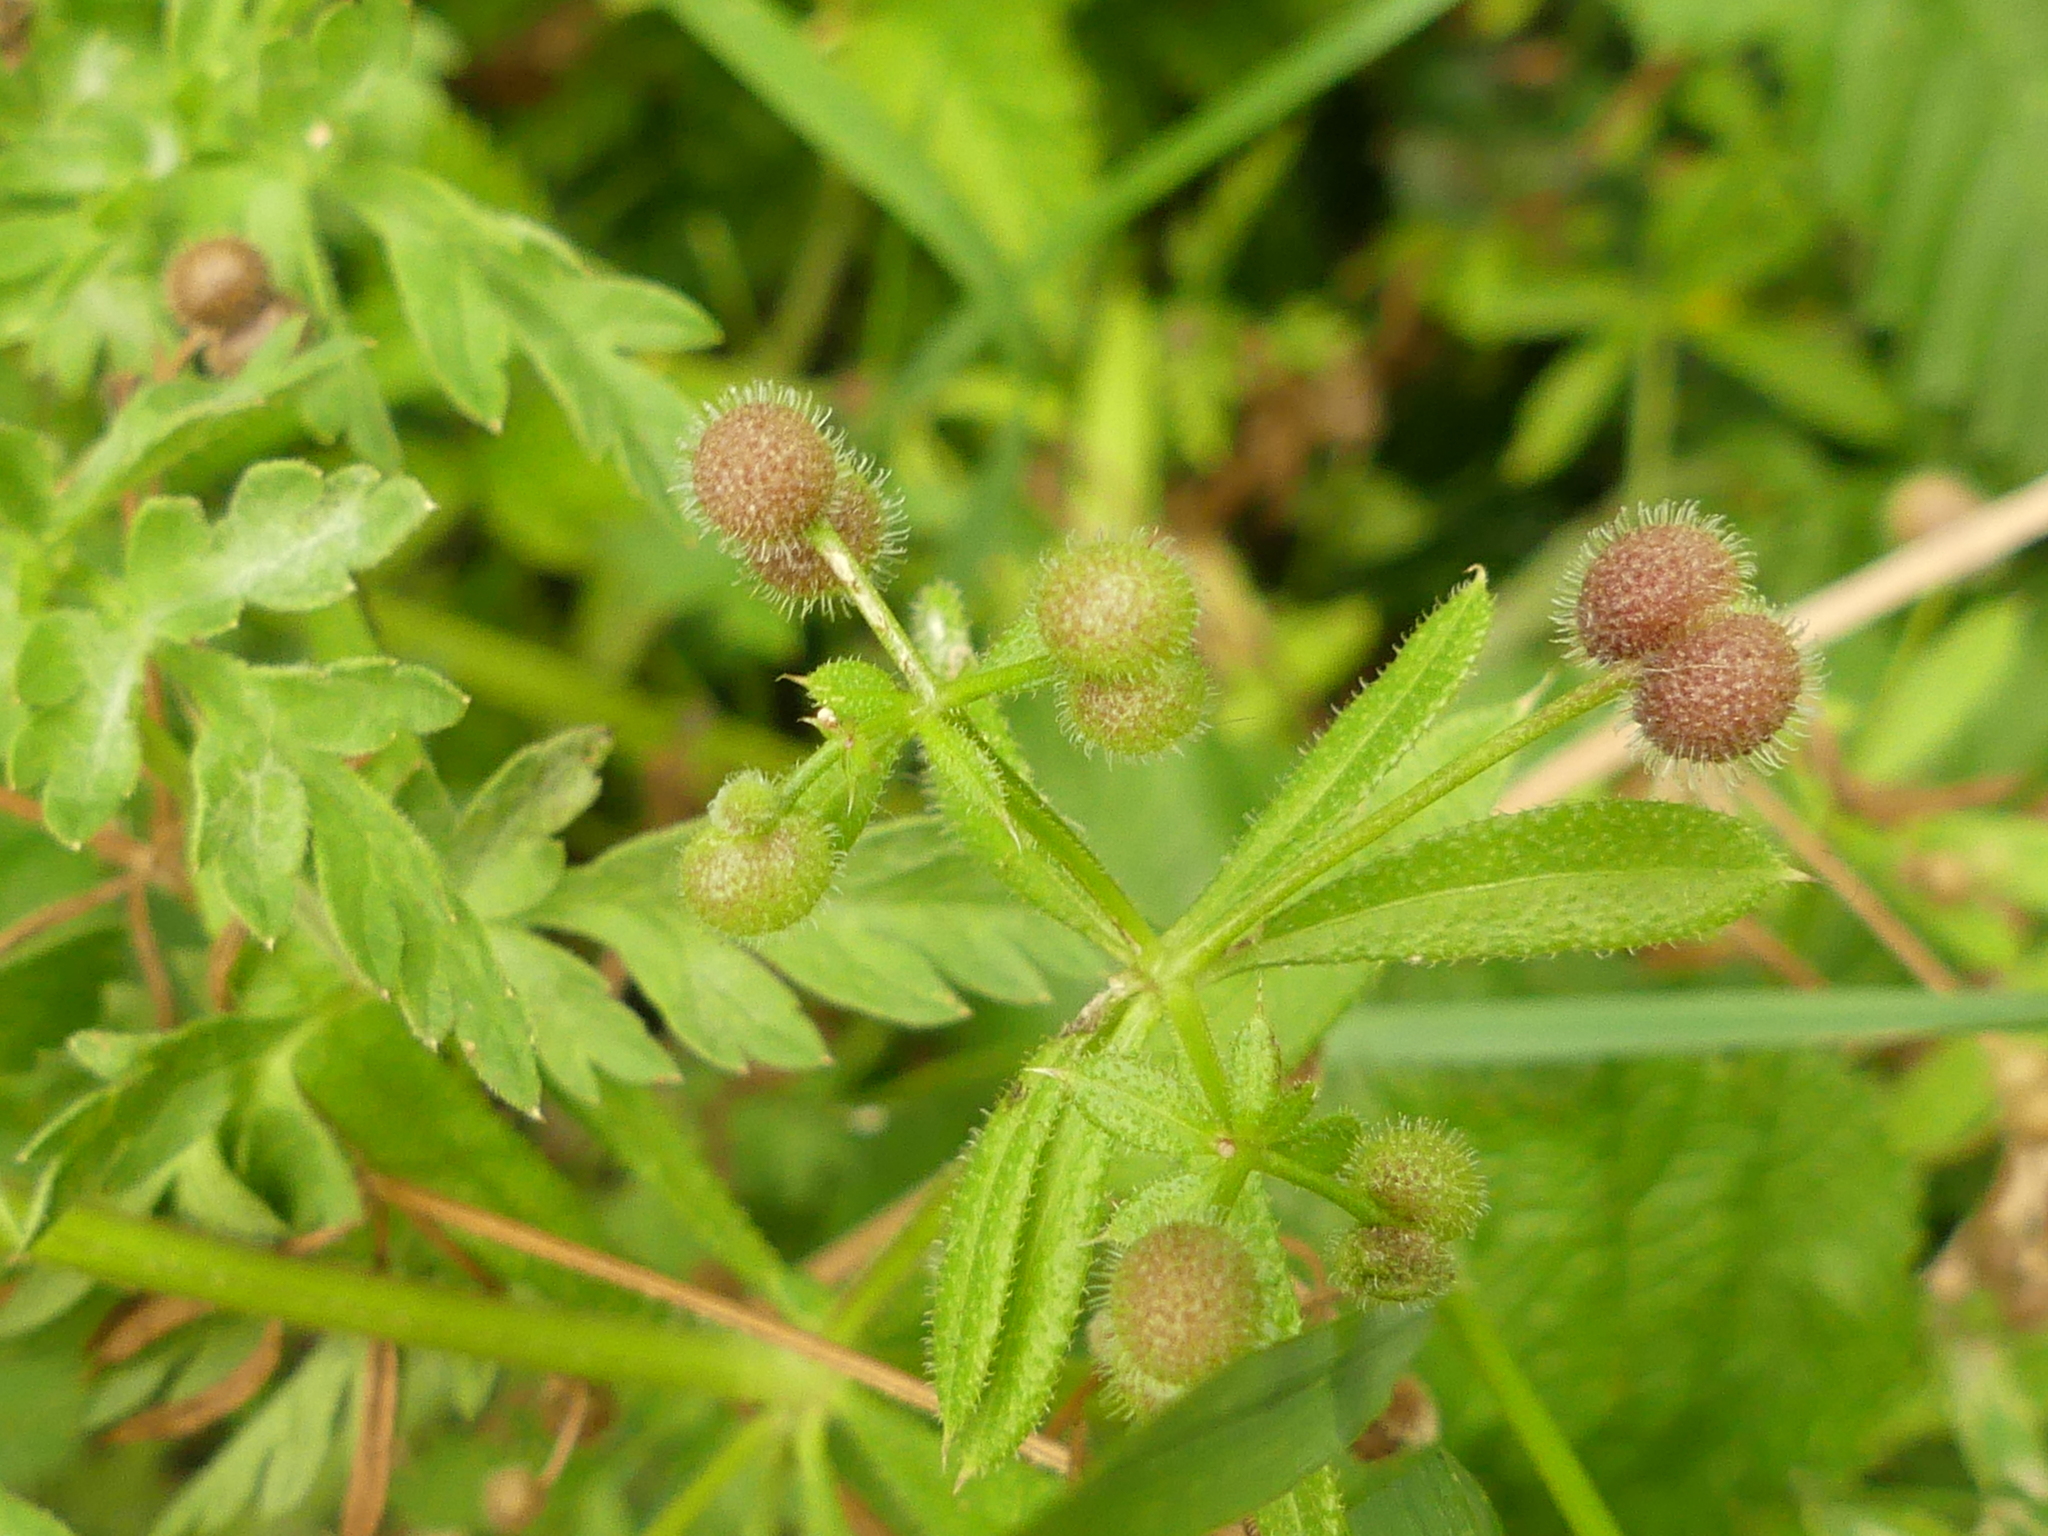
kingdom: Plantae
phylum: Tracheophyta
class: Magnoliopsida
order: Gentianales
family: Rubiaceae
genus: Galium
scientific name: Galium aparine
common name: Cleavers
